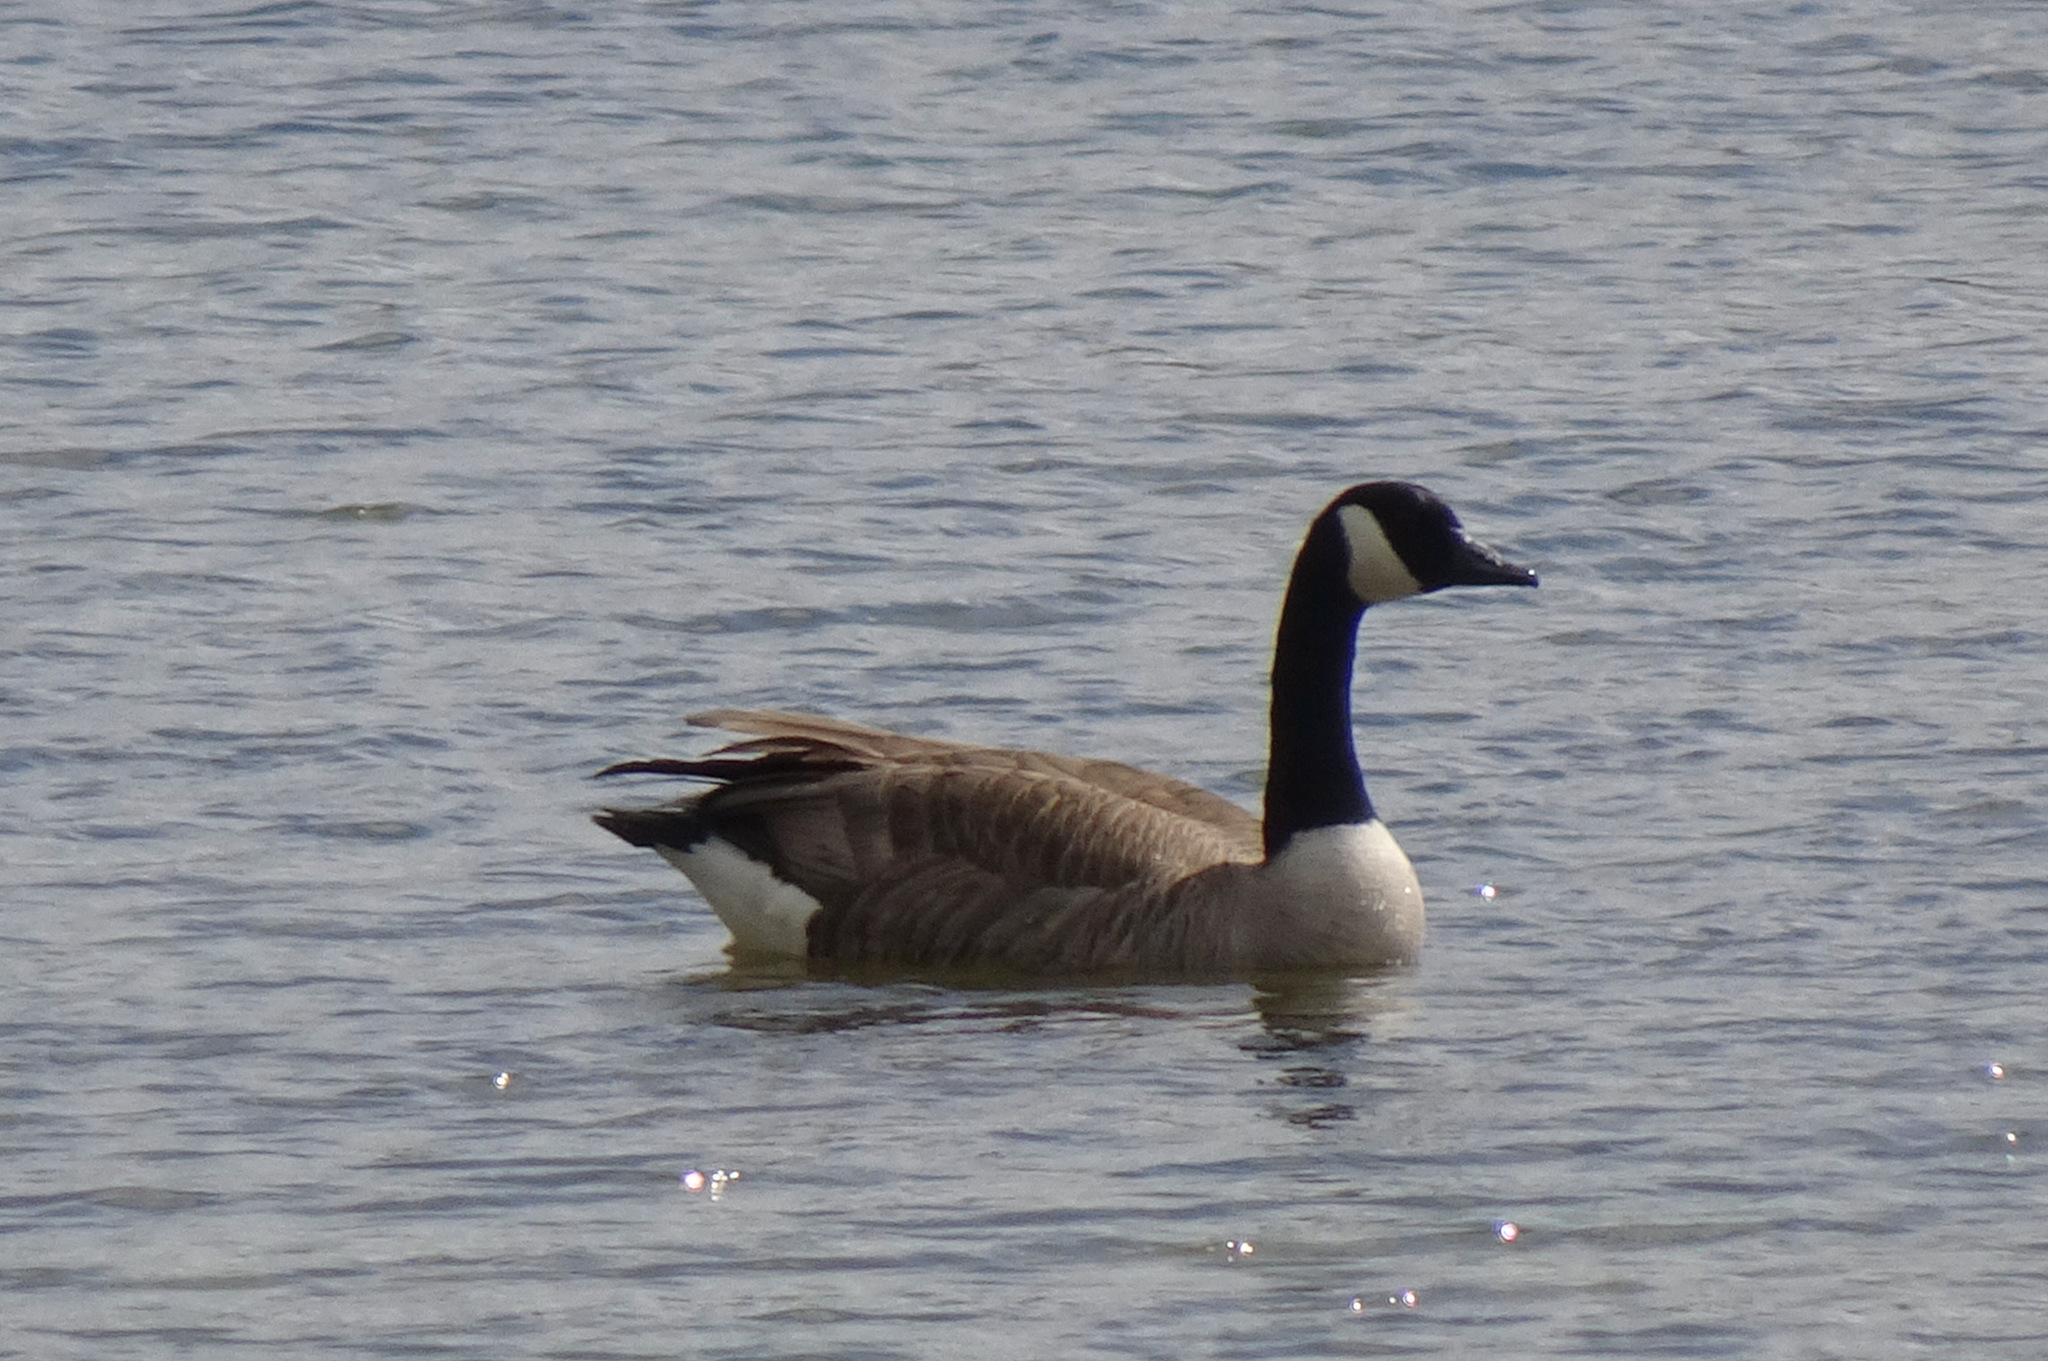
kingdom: Animalia
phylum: Chordata
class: Aves
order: Anseriformes
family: Anatidae
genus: Branta
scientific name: Branta canadensis
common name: Canada goose
